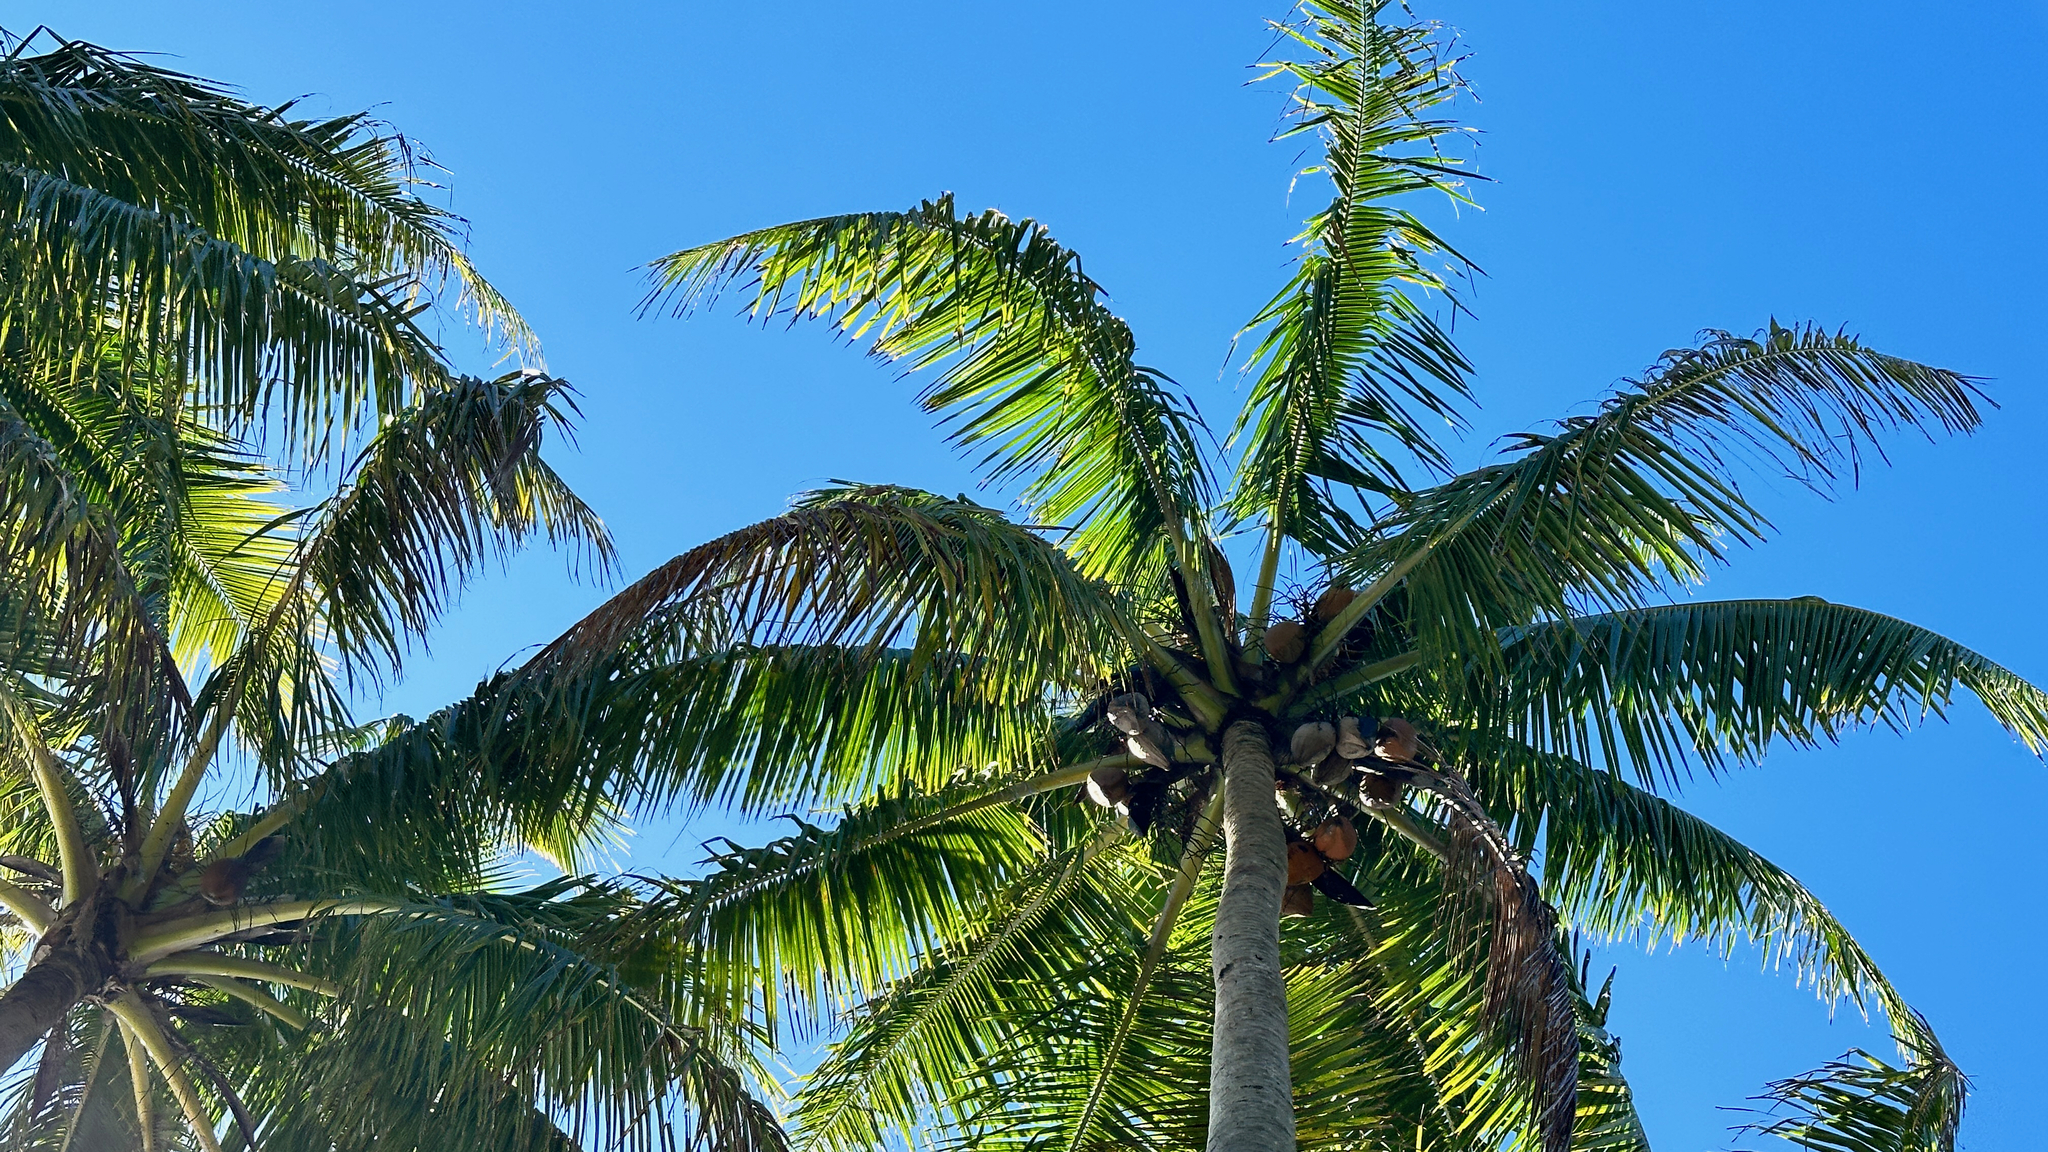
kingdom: Plantae
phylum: Tracheophyta
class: Liliopsida
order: Arecales
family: Arecaceae
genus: Cocos
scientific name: Cocos nucifera
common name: Coconut palm
